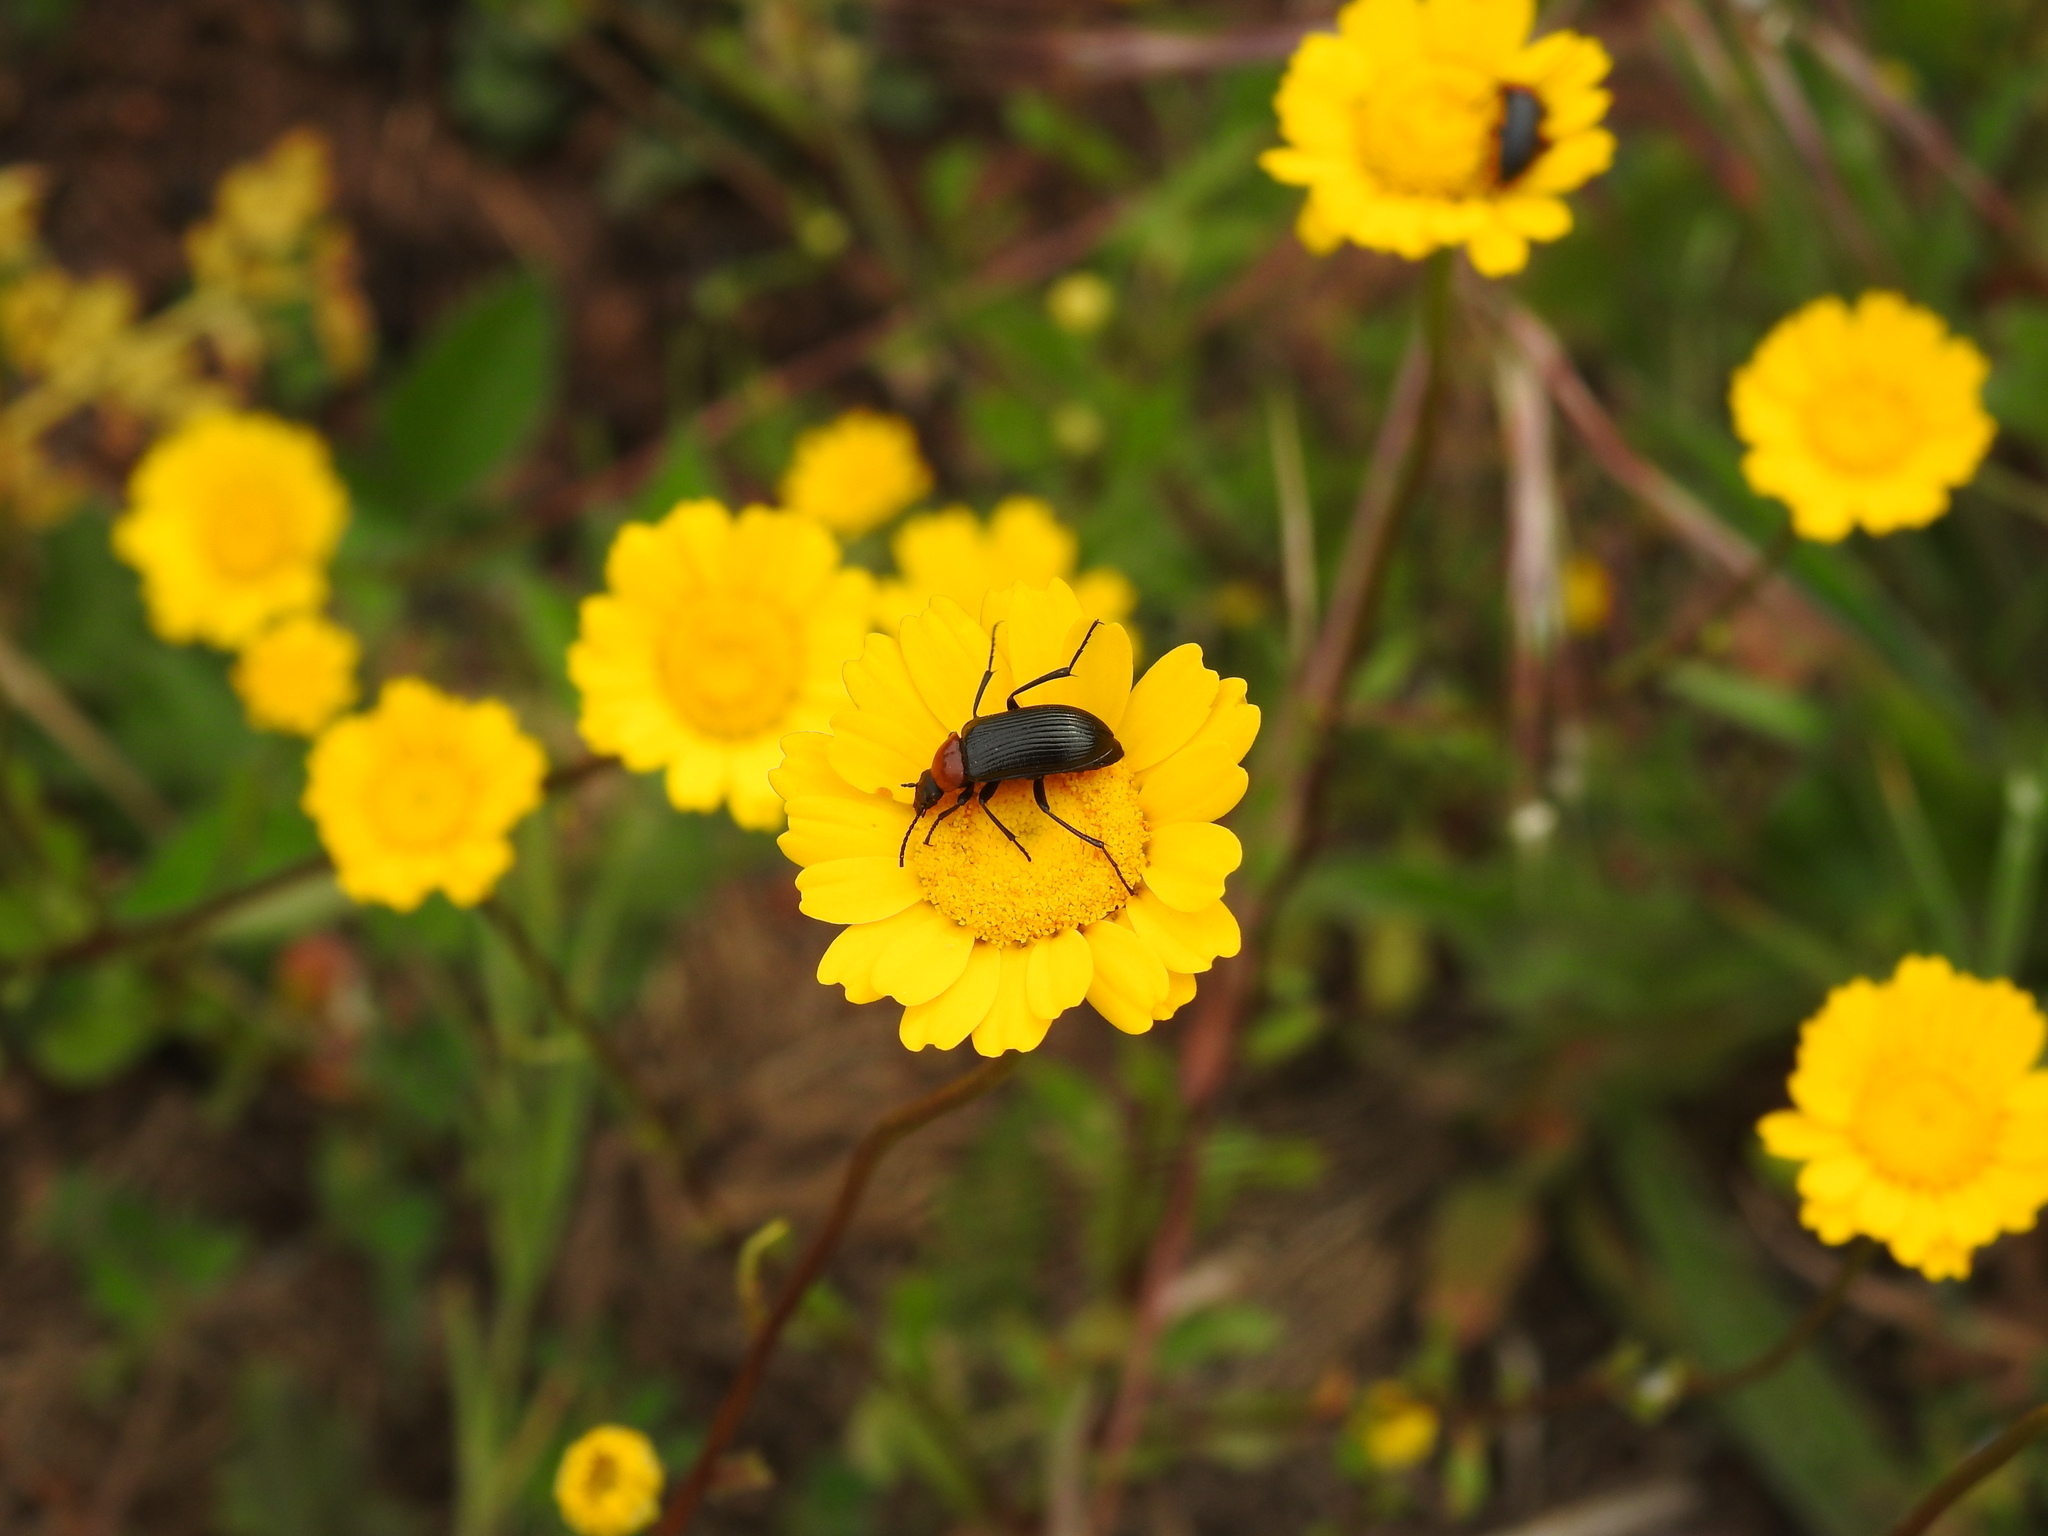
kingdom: Animalia
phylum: Arthropoda
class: Insecta
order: Coleoptera
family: Tenebrionidae
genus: Heliotaurus
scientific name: Heliotaurus ruficollis
